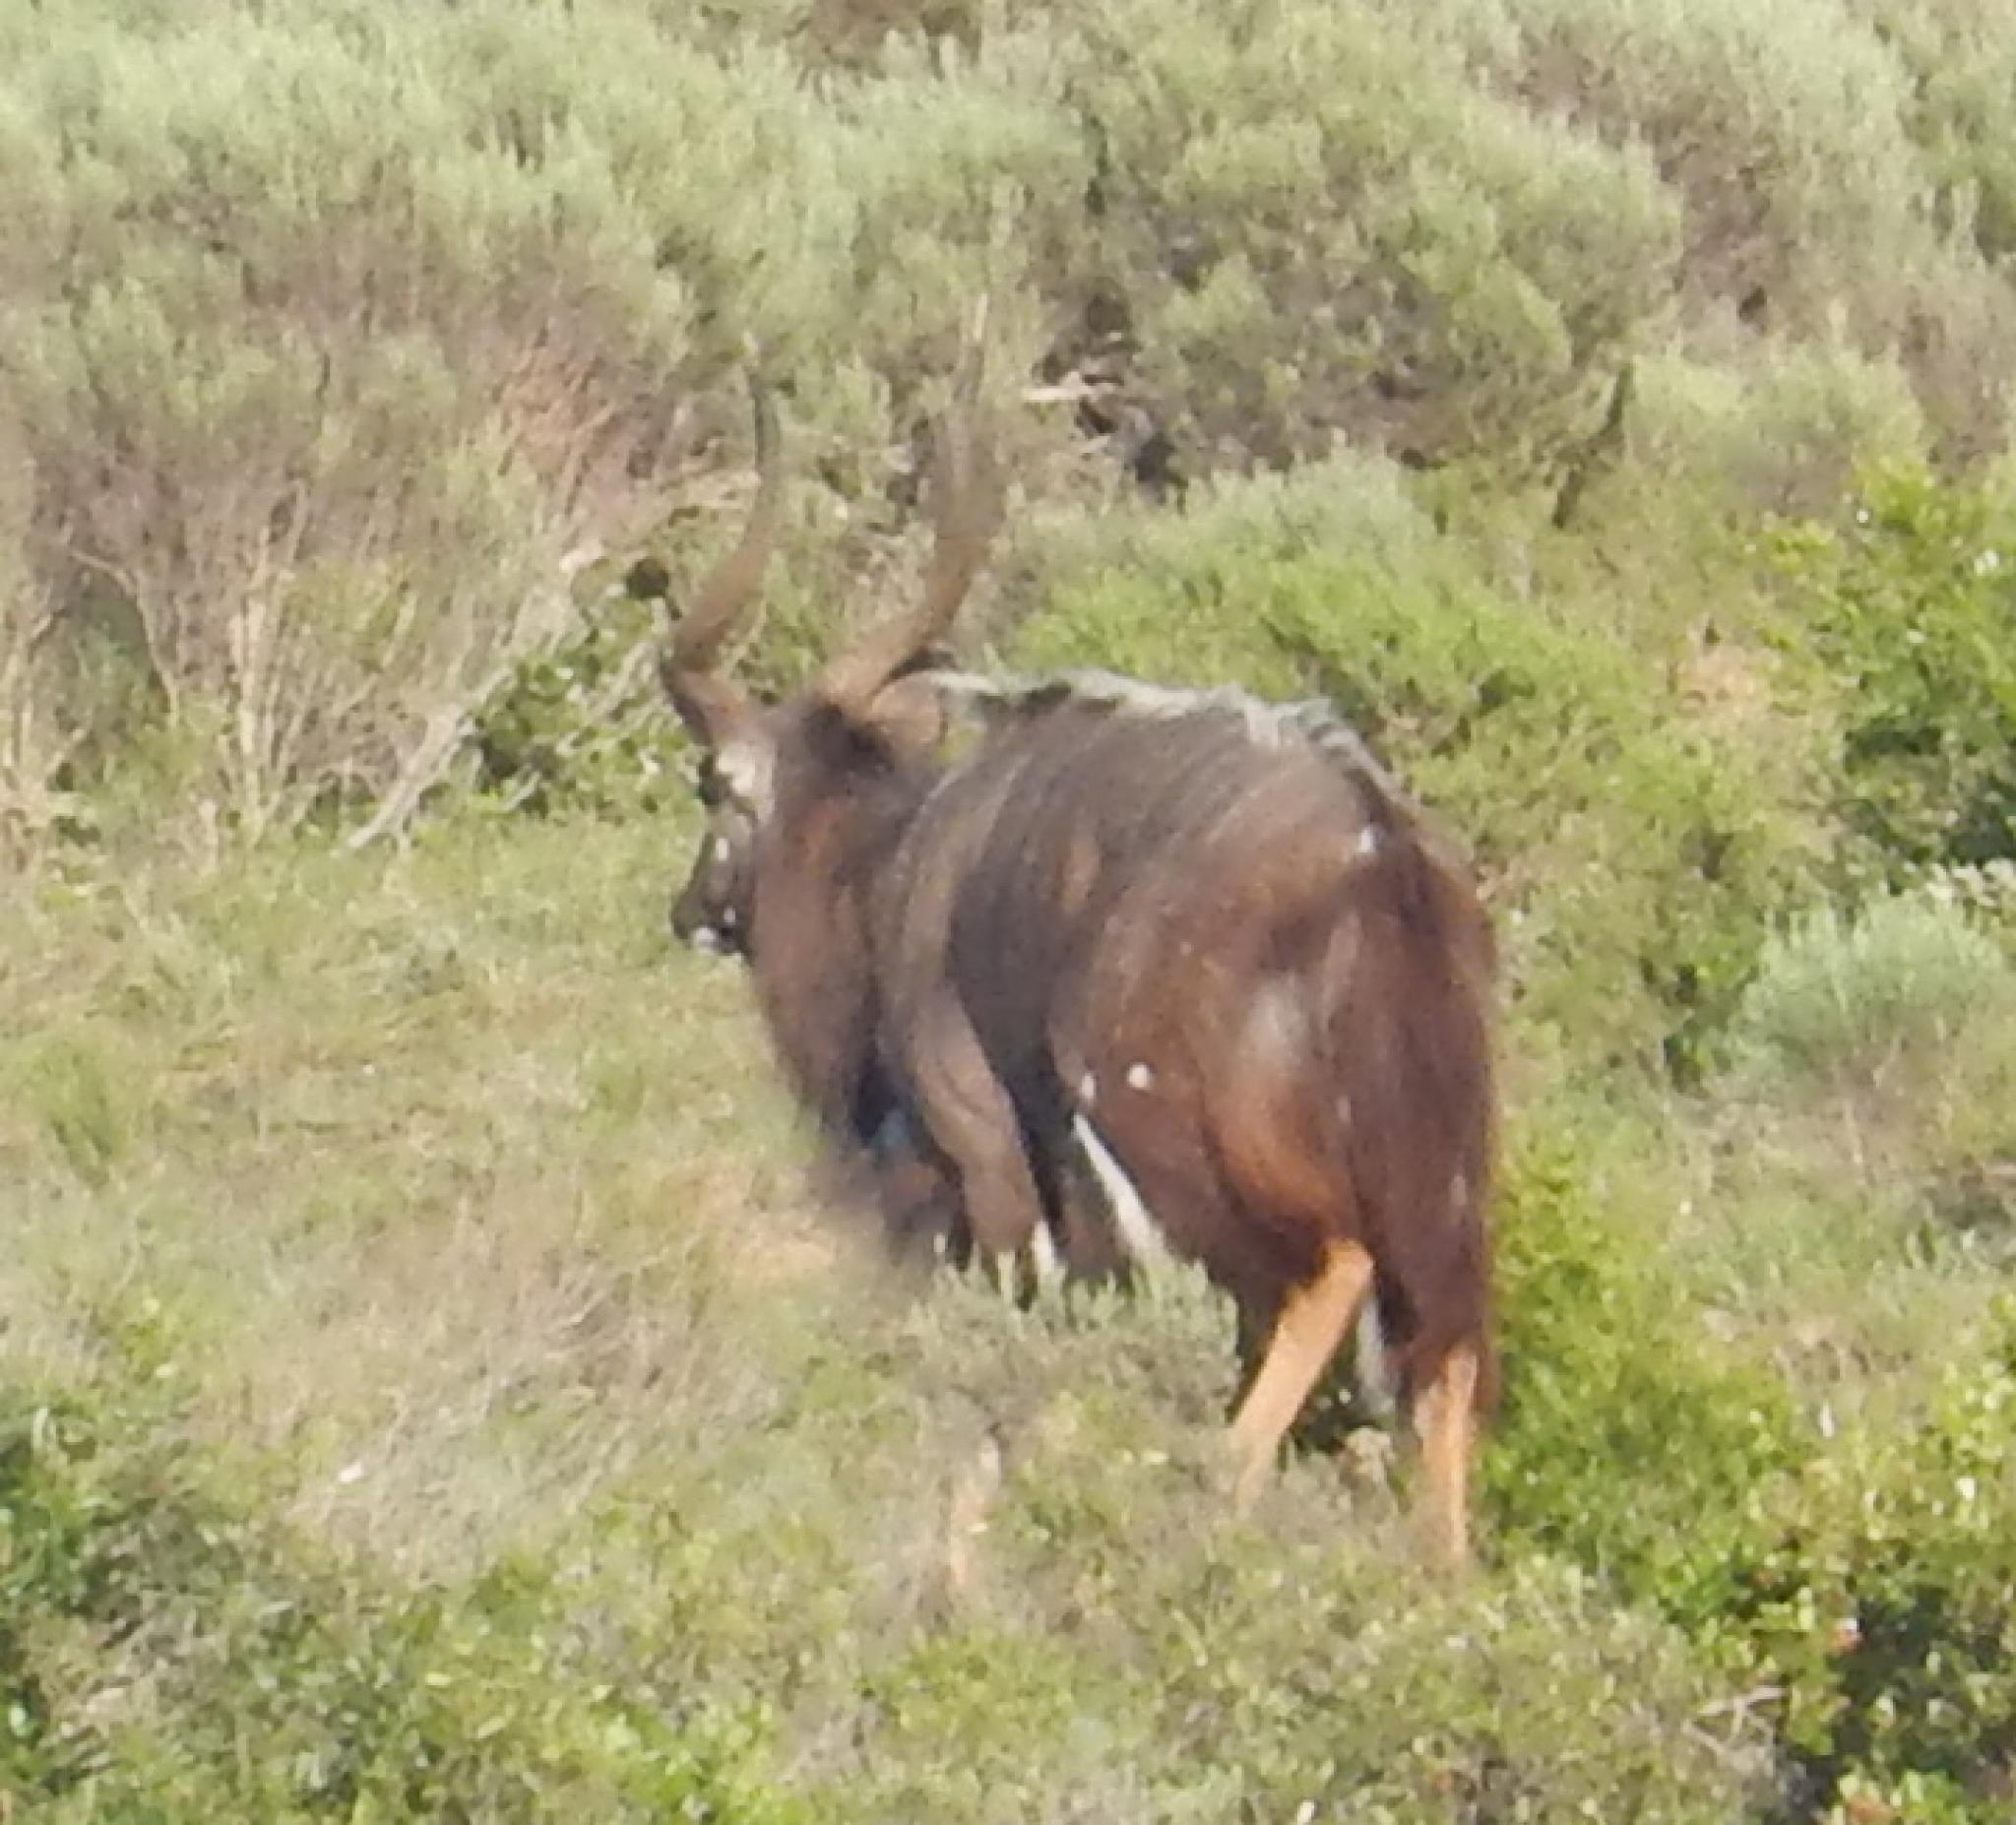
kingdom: Animalia
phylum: Chordata
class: Mammalia
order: Artiodactyla
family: Bovidae
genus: Tragelaphus
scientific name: Tragelaphus angasii
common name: Nyala
